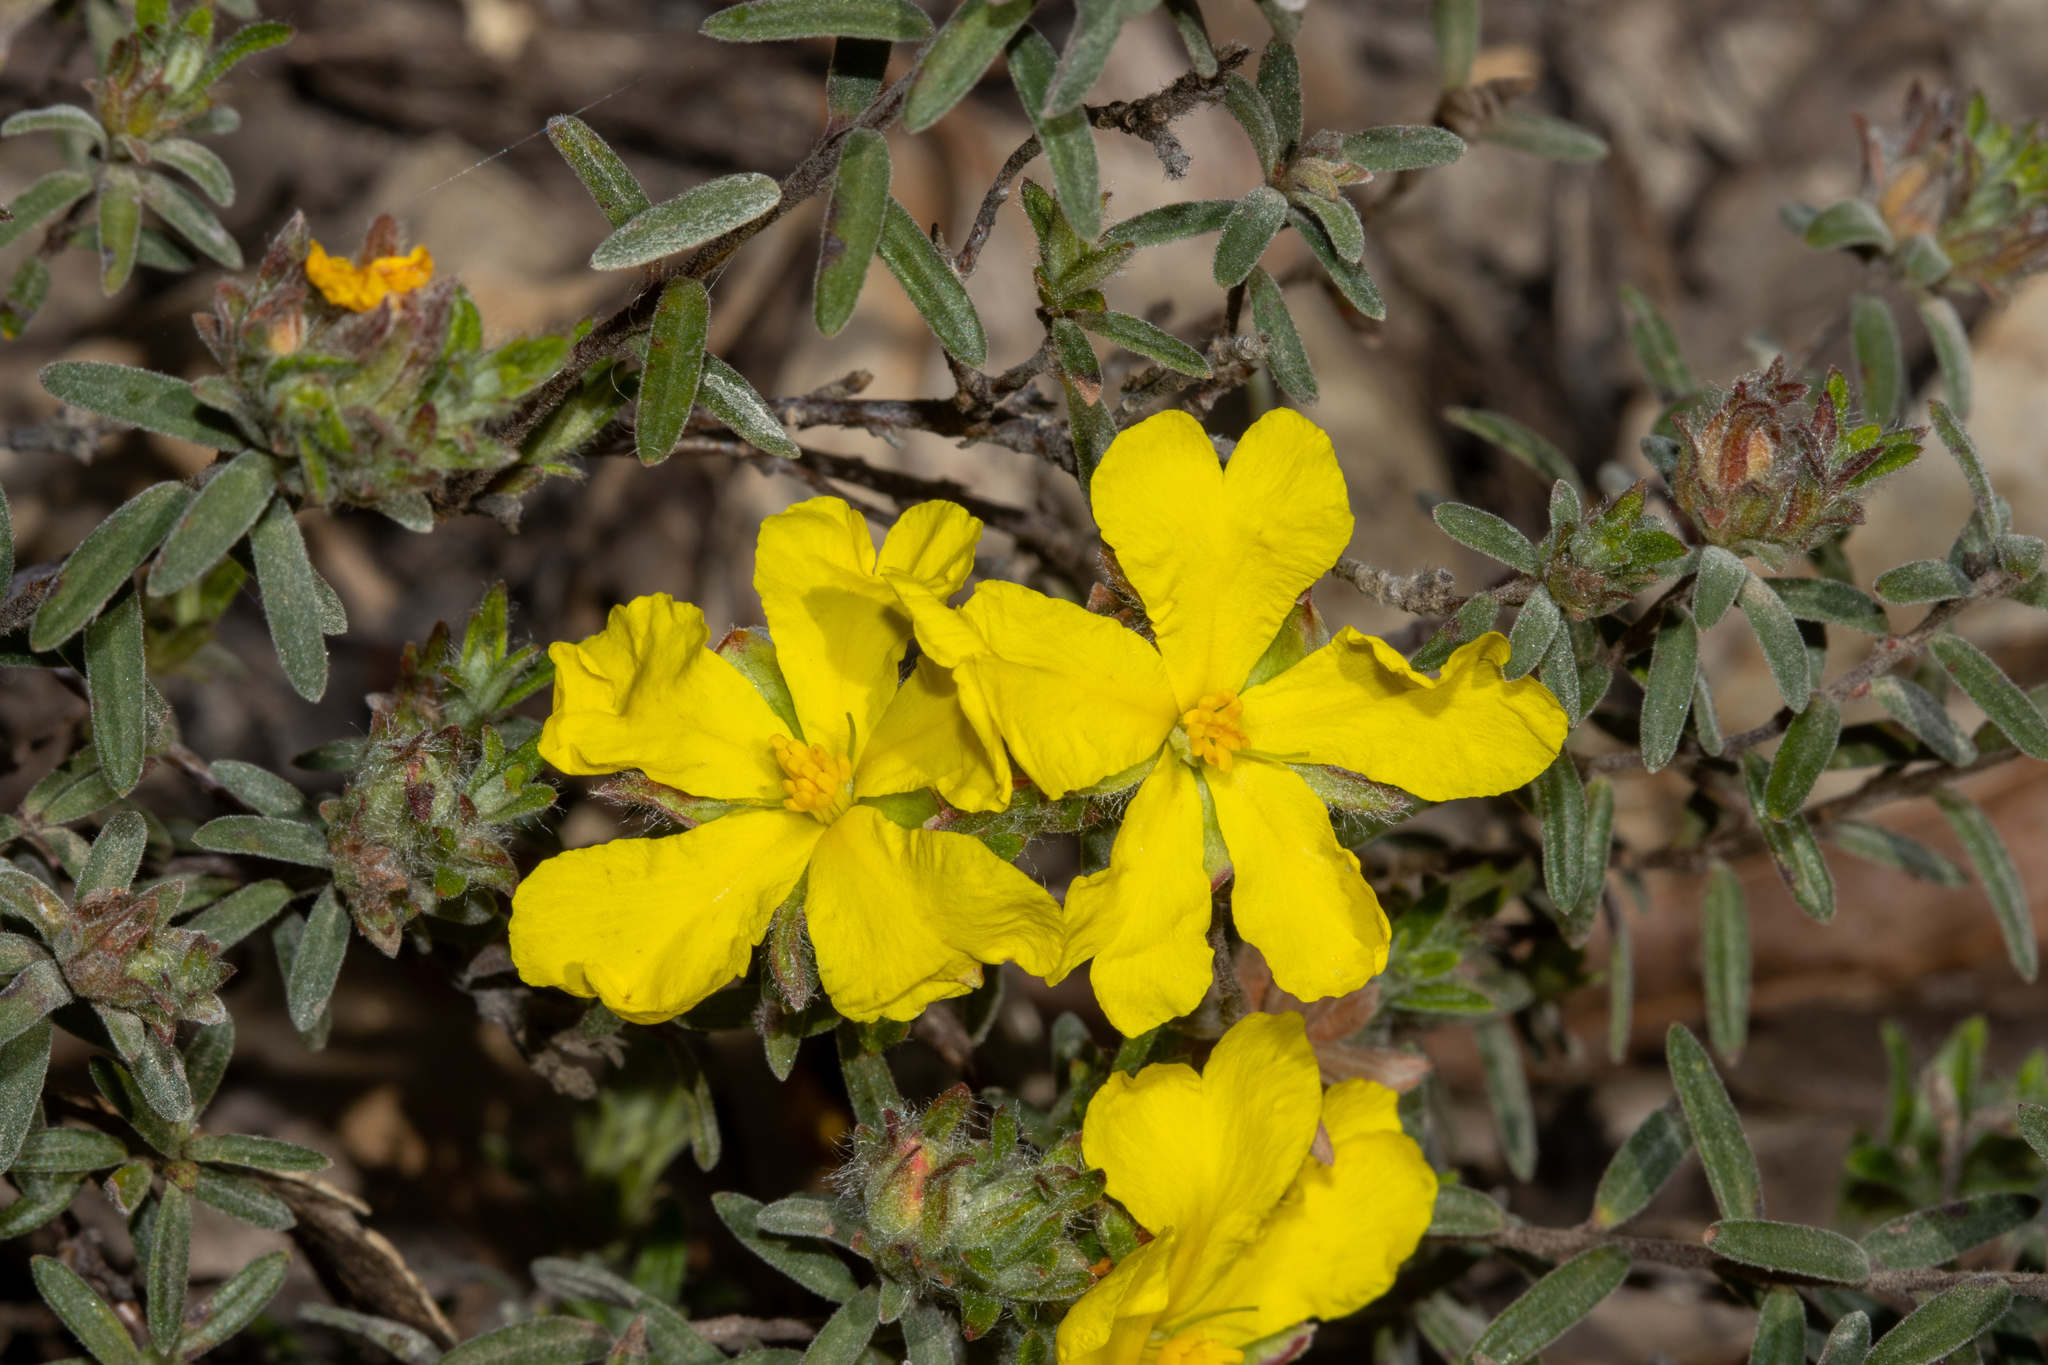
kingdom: Plantae
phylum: Tracheophyta
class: Magnoliopsida
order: Dilleniales
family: Dilleniaceae
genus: Hibbertia
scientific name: Hibbertia crinita
